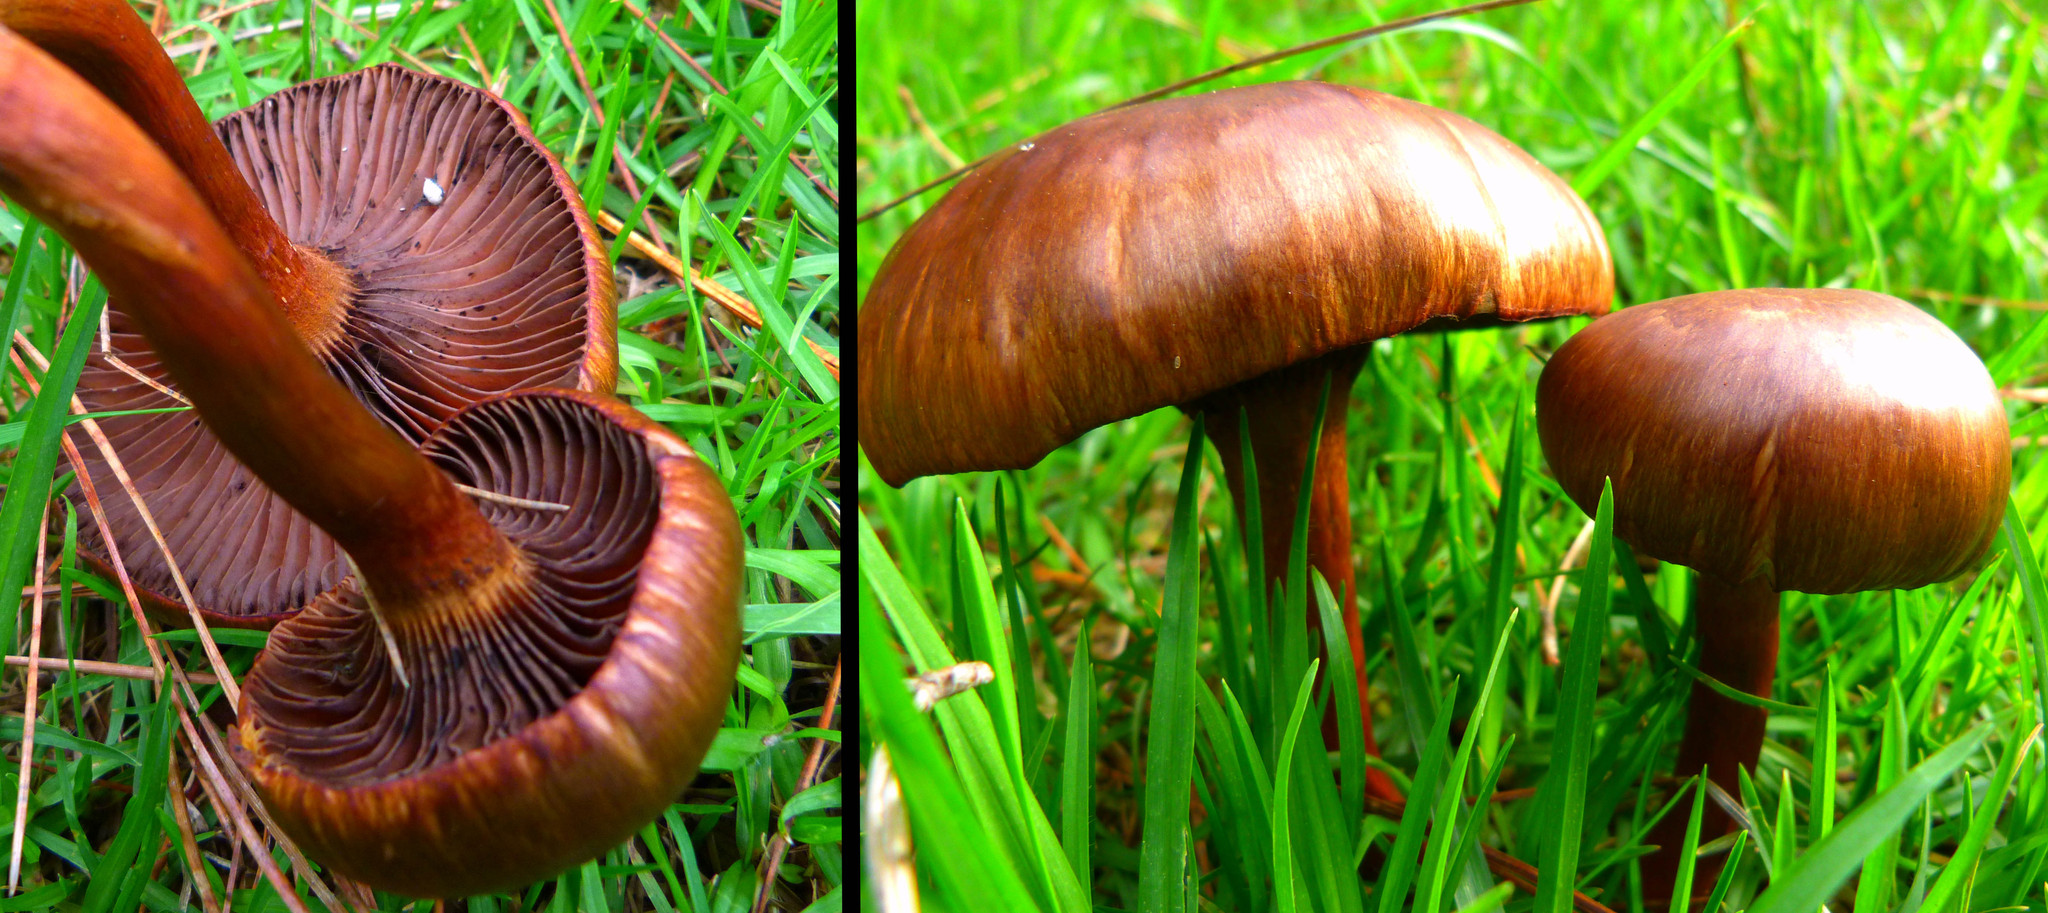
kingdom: Fungi
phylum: Basidiomycota
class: Agaricomycetes
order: Boletales
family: Gomphidiaceae
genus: Chroogomphus
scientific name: Chroogomphus vinicolor
